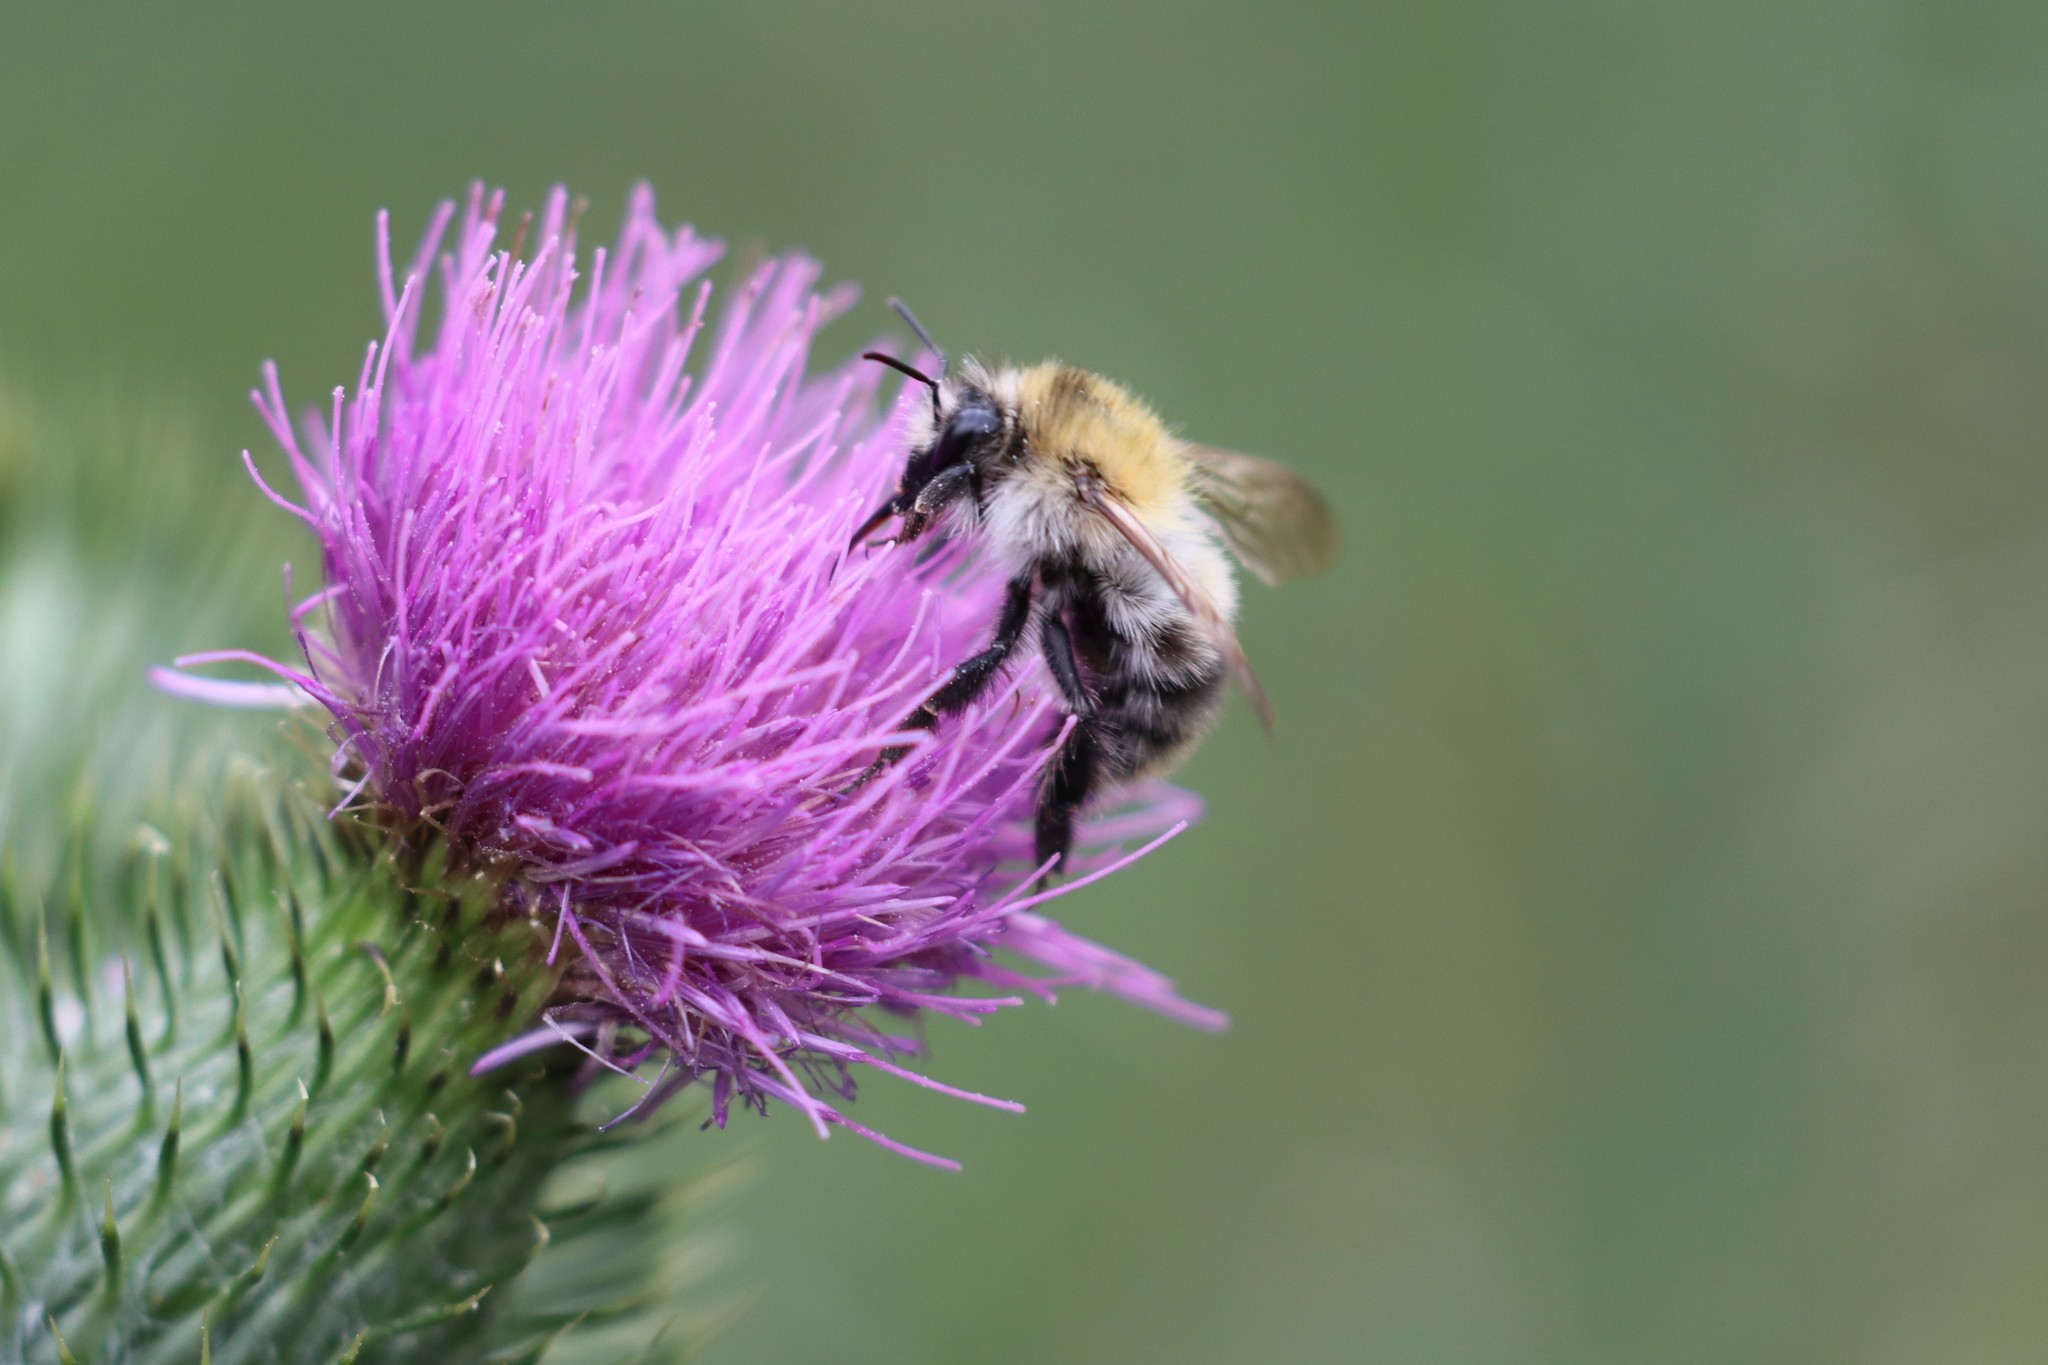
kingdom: Animalia
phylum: Arthropoda
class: Insecta
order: Hymenoptera
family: Apidae
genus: Bombus
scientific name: Bombus pascuorum
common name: Common carder bee
